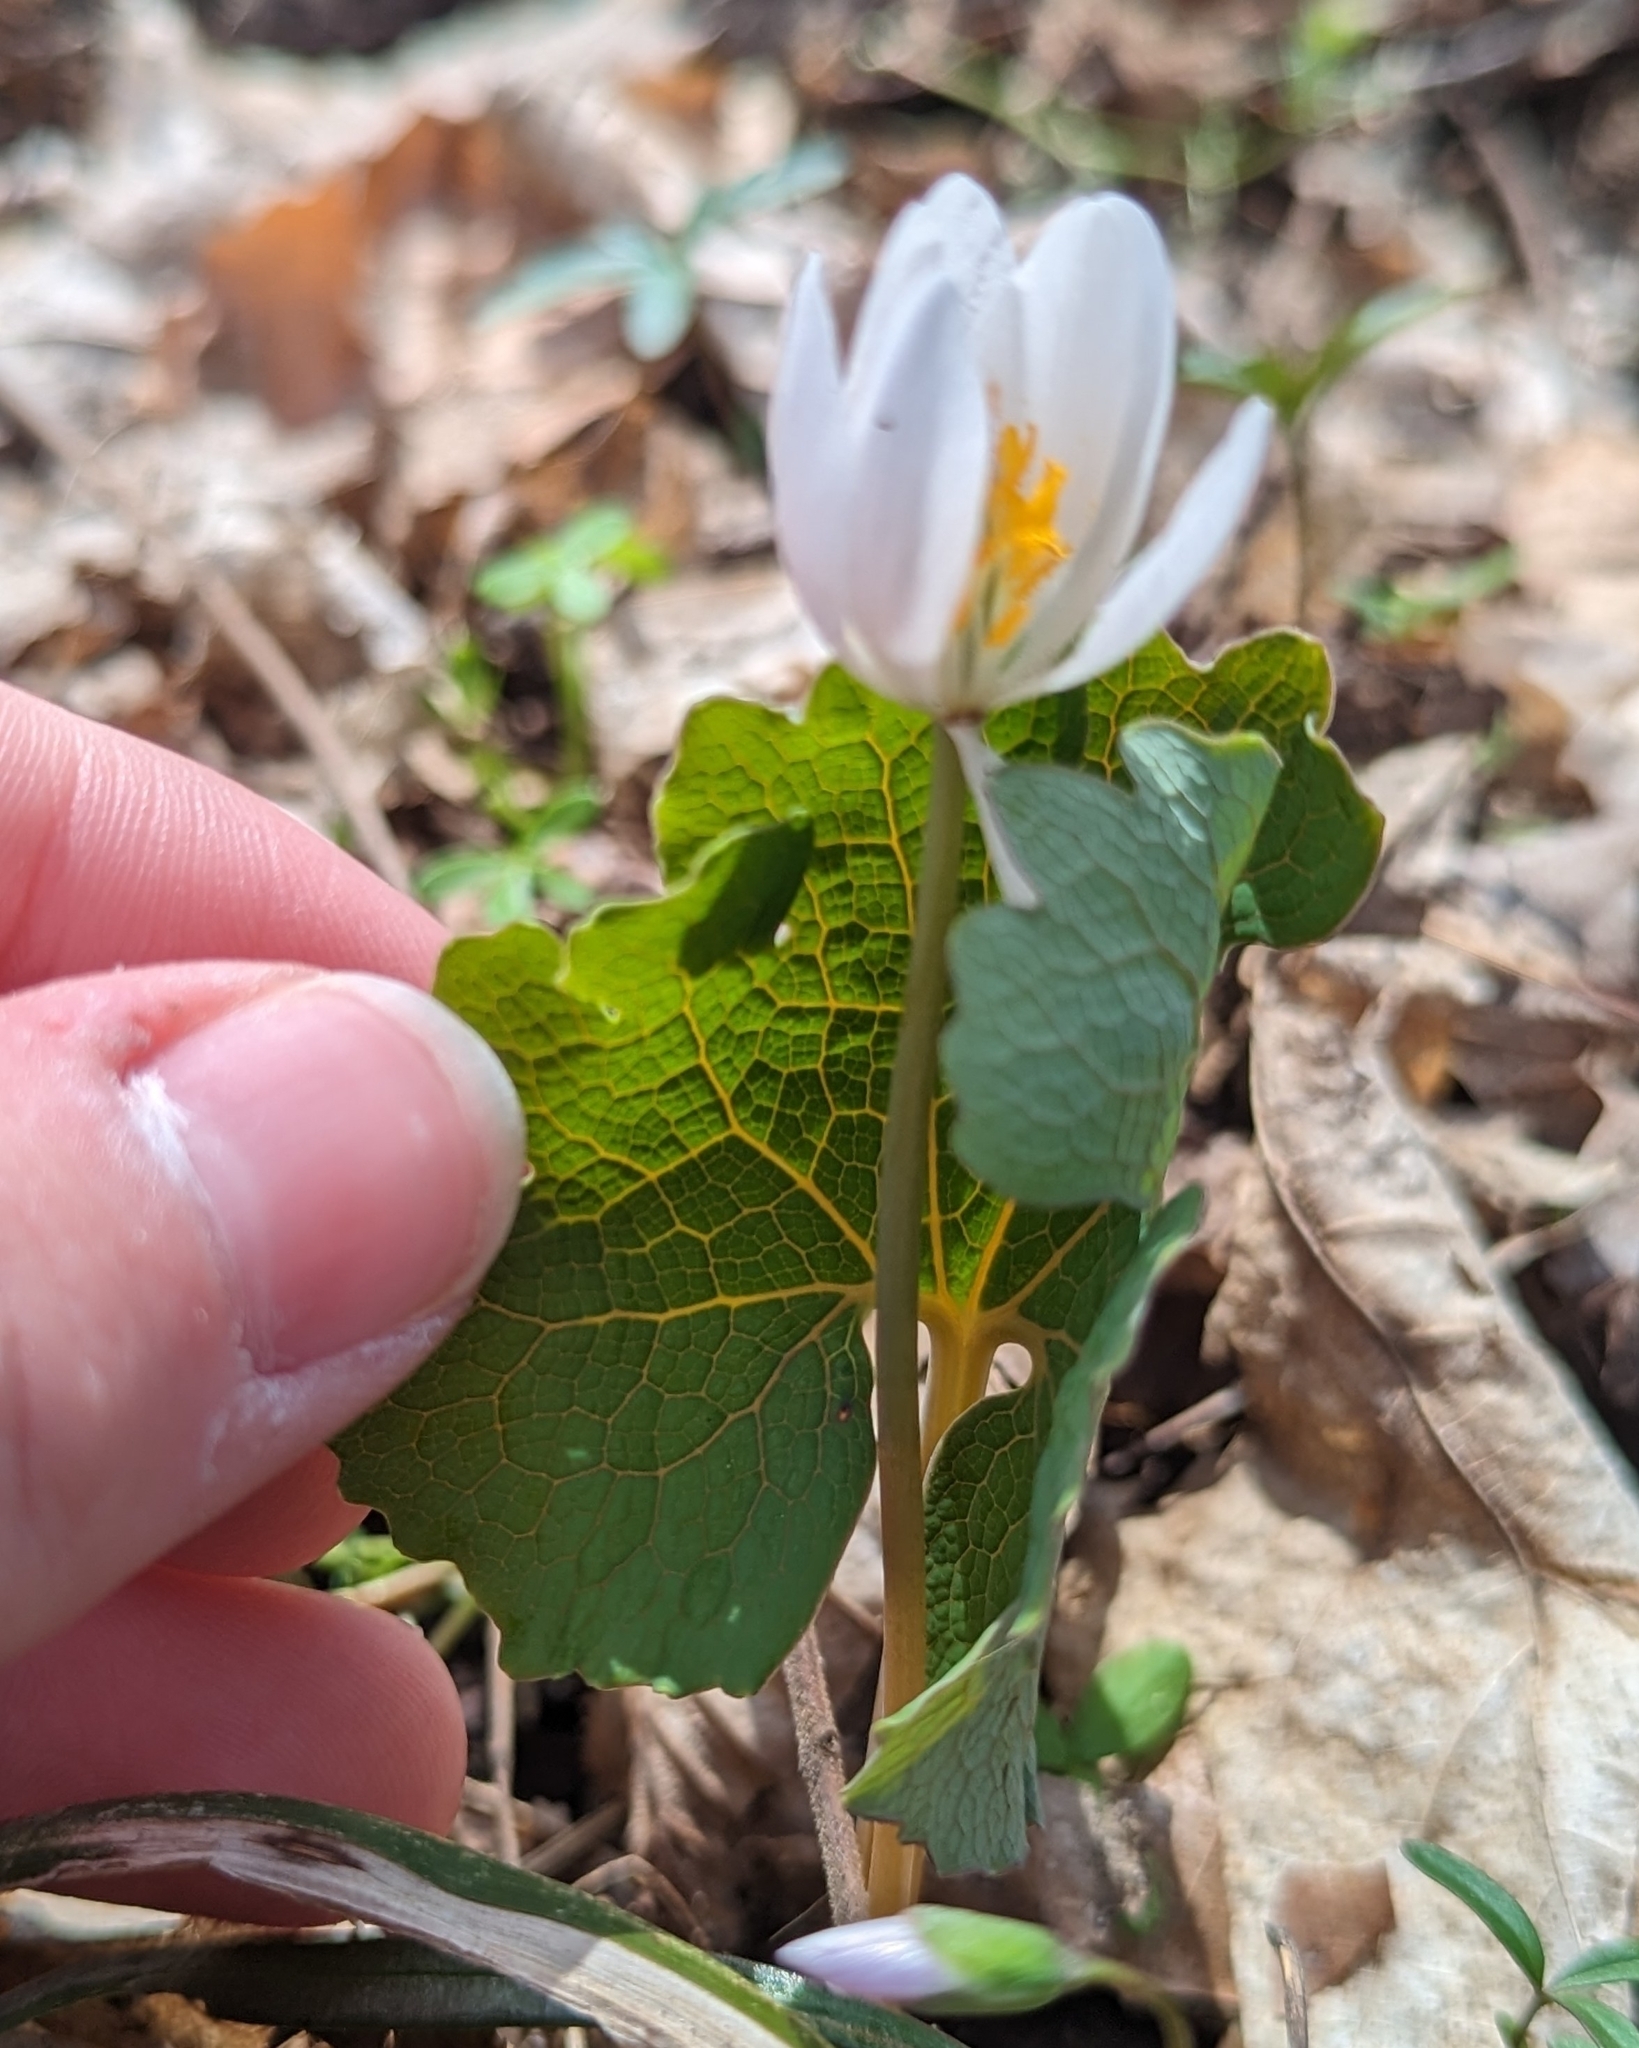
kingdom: Plantae
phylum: Tracheophyta
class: Magnoliopsida
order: Ranunculales
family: Papaveraceae
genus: Sanguinaria
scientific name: Sanguinaria canadensis
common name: Bloodroot
